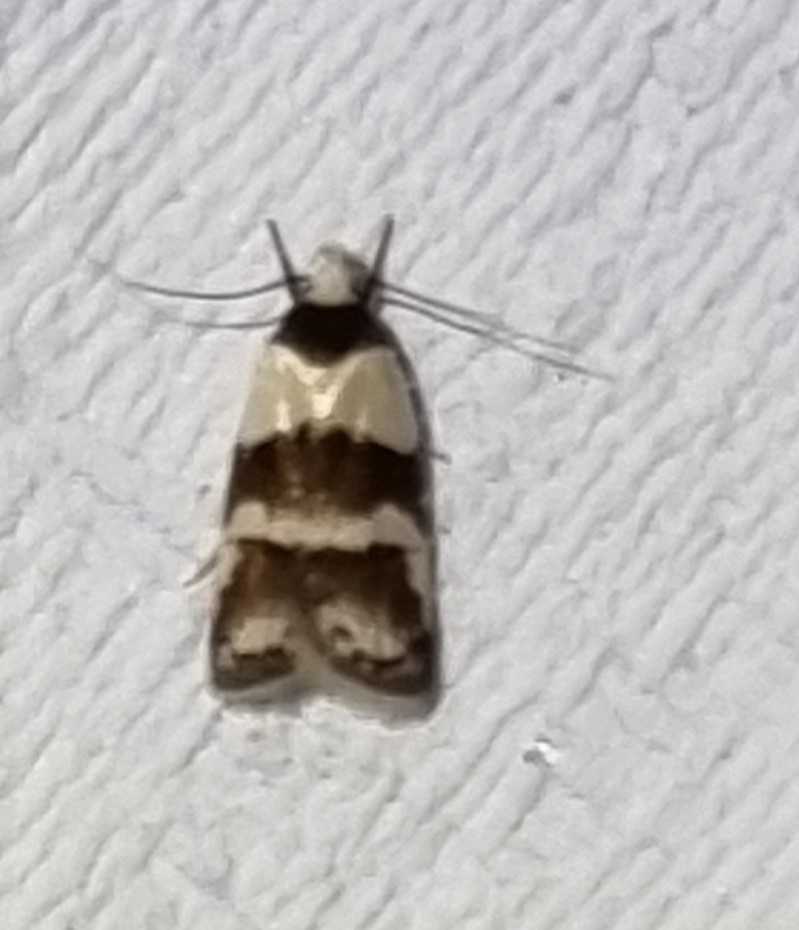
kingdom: Animalia
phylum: Arthropoda
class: Insecta
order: Lepidoptera
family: Oecophoridae
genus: Eulechria
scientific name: Eulechria triferella
